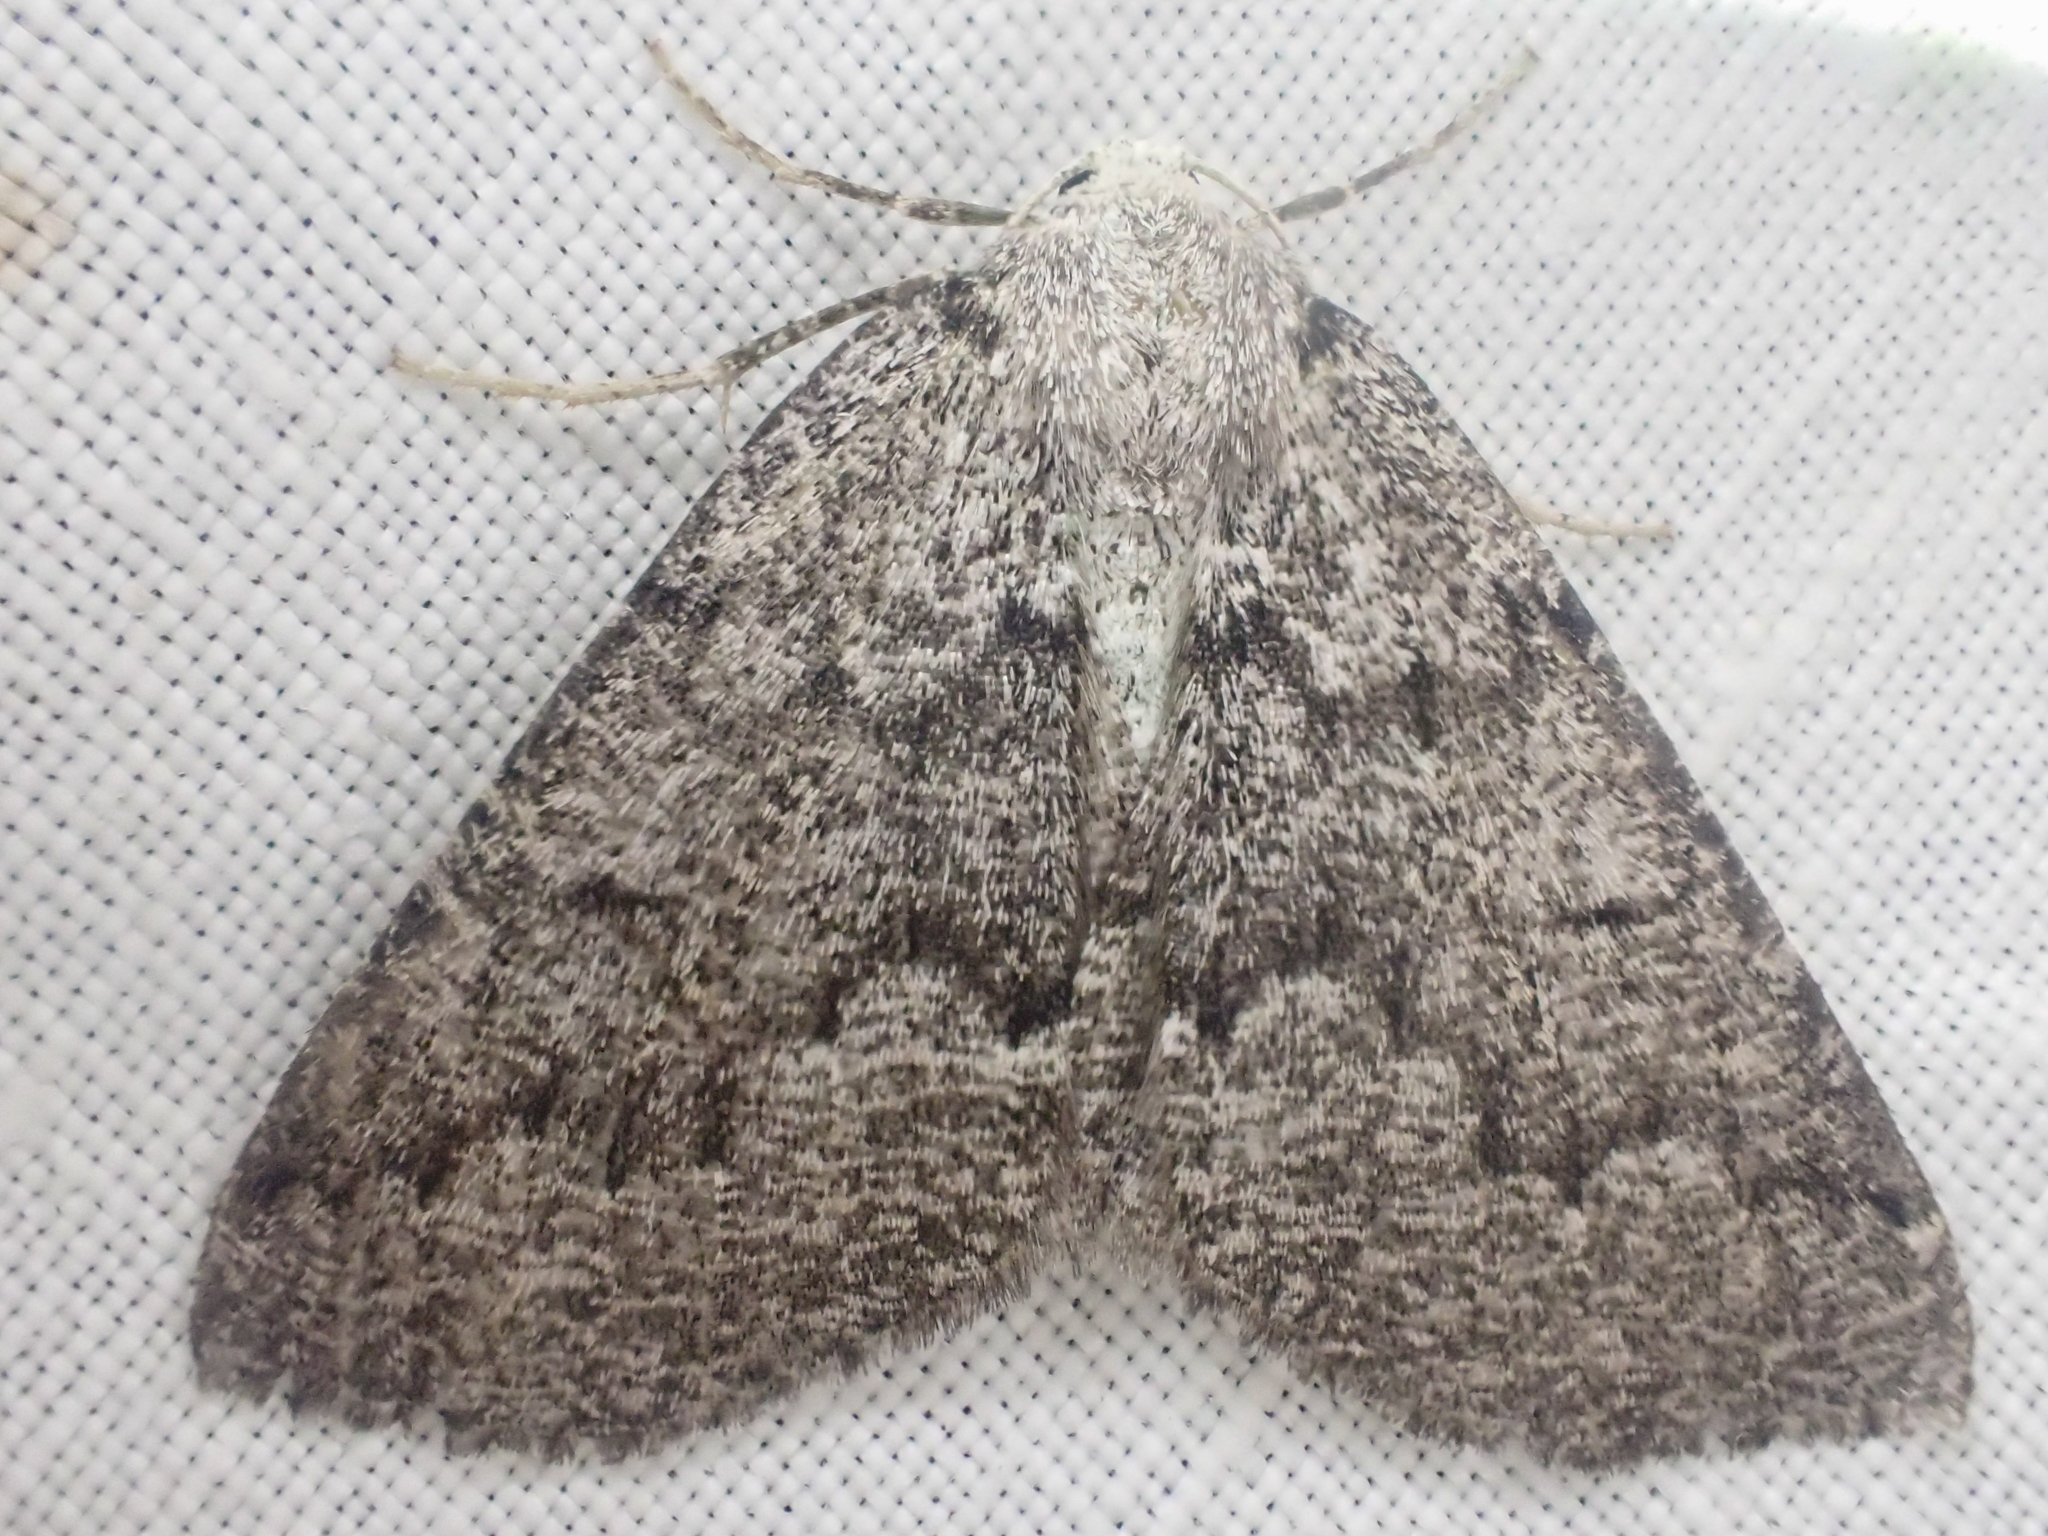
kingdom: Animalia
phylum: Arthropoda
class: Insecta
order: Lepidoptera
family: Geometridae
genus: Sabulodes
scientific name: Sabulodes
